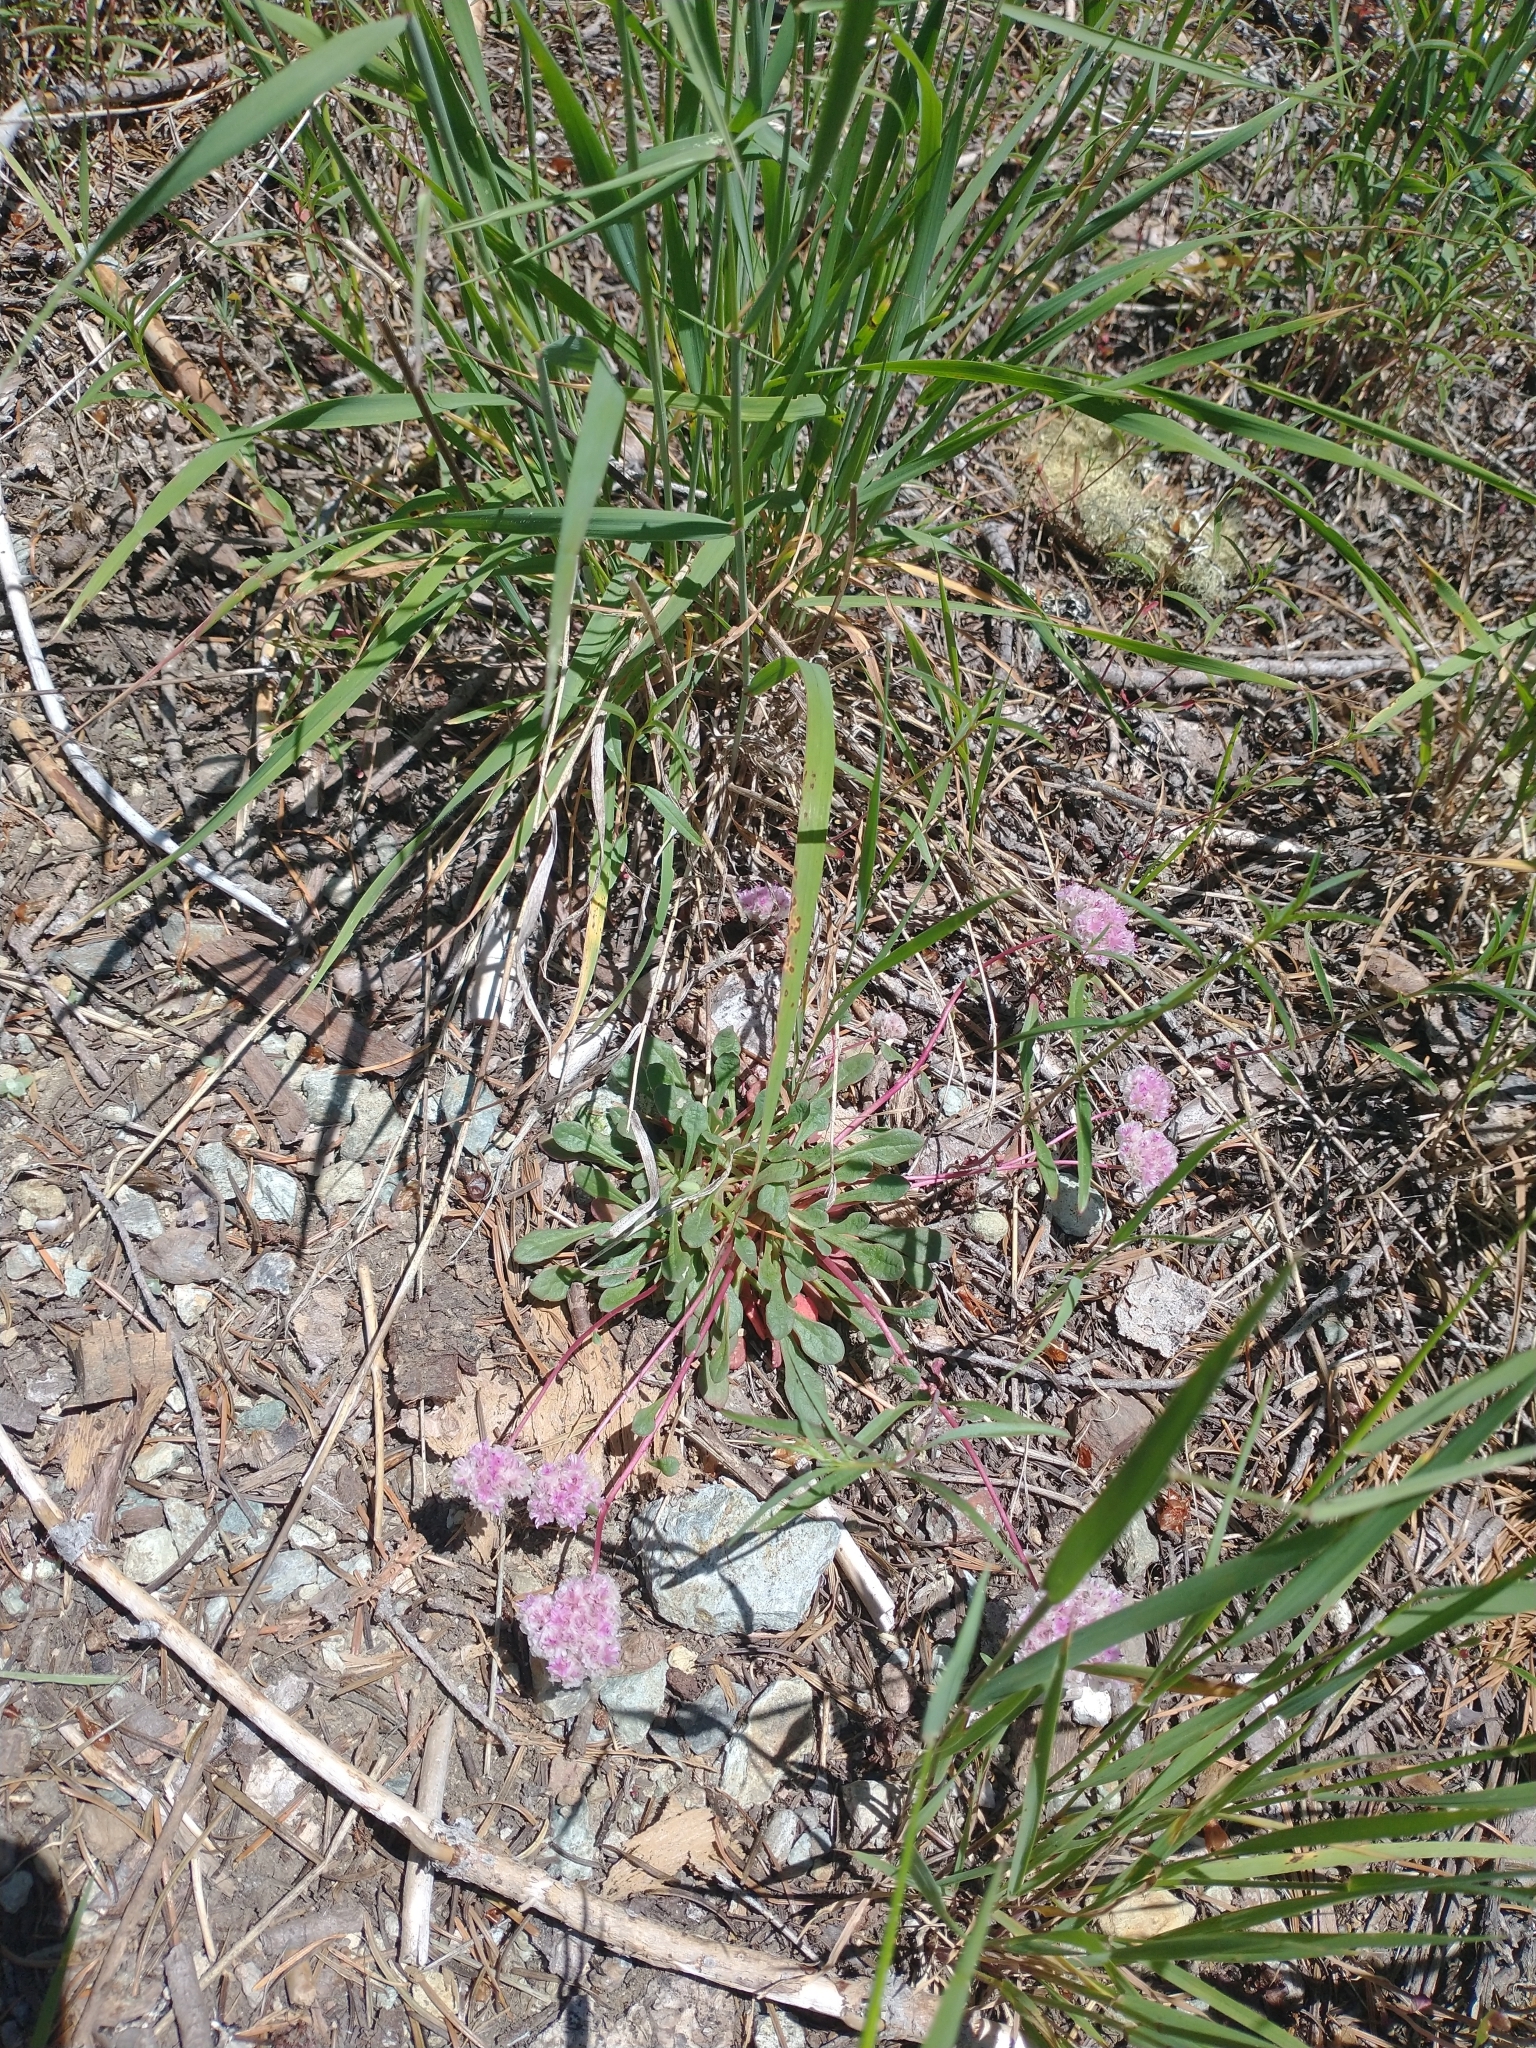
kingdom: Plantae
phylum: Tracheophyta
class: Magnoliopsida
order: Caryophyllales
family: Montiaceae
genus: Calyptridium
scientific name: Calyptridium monospermum
